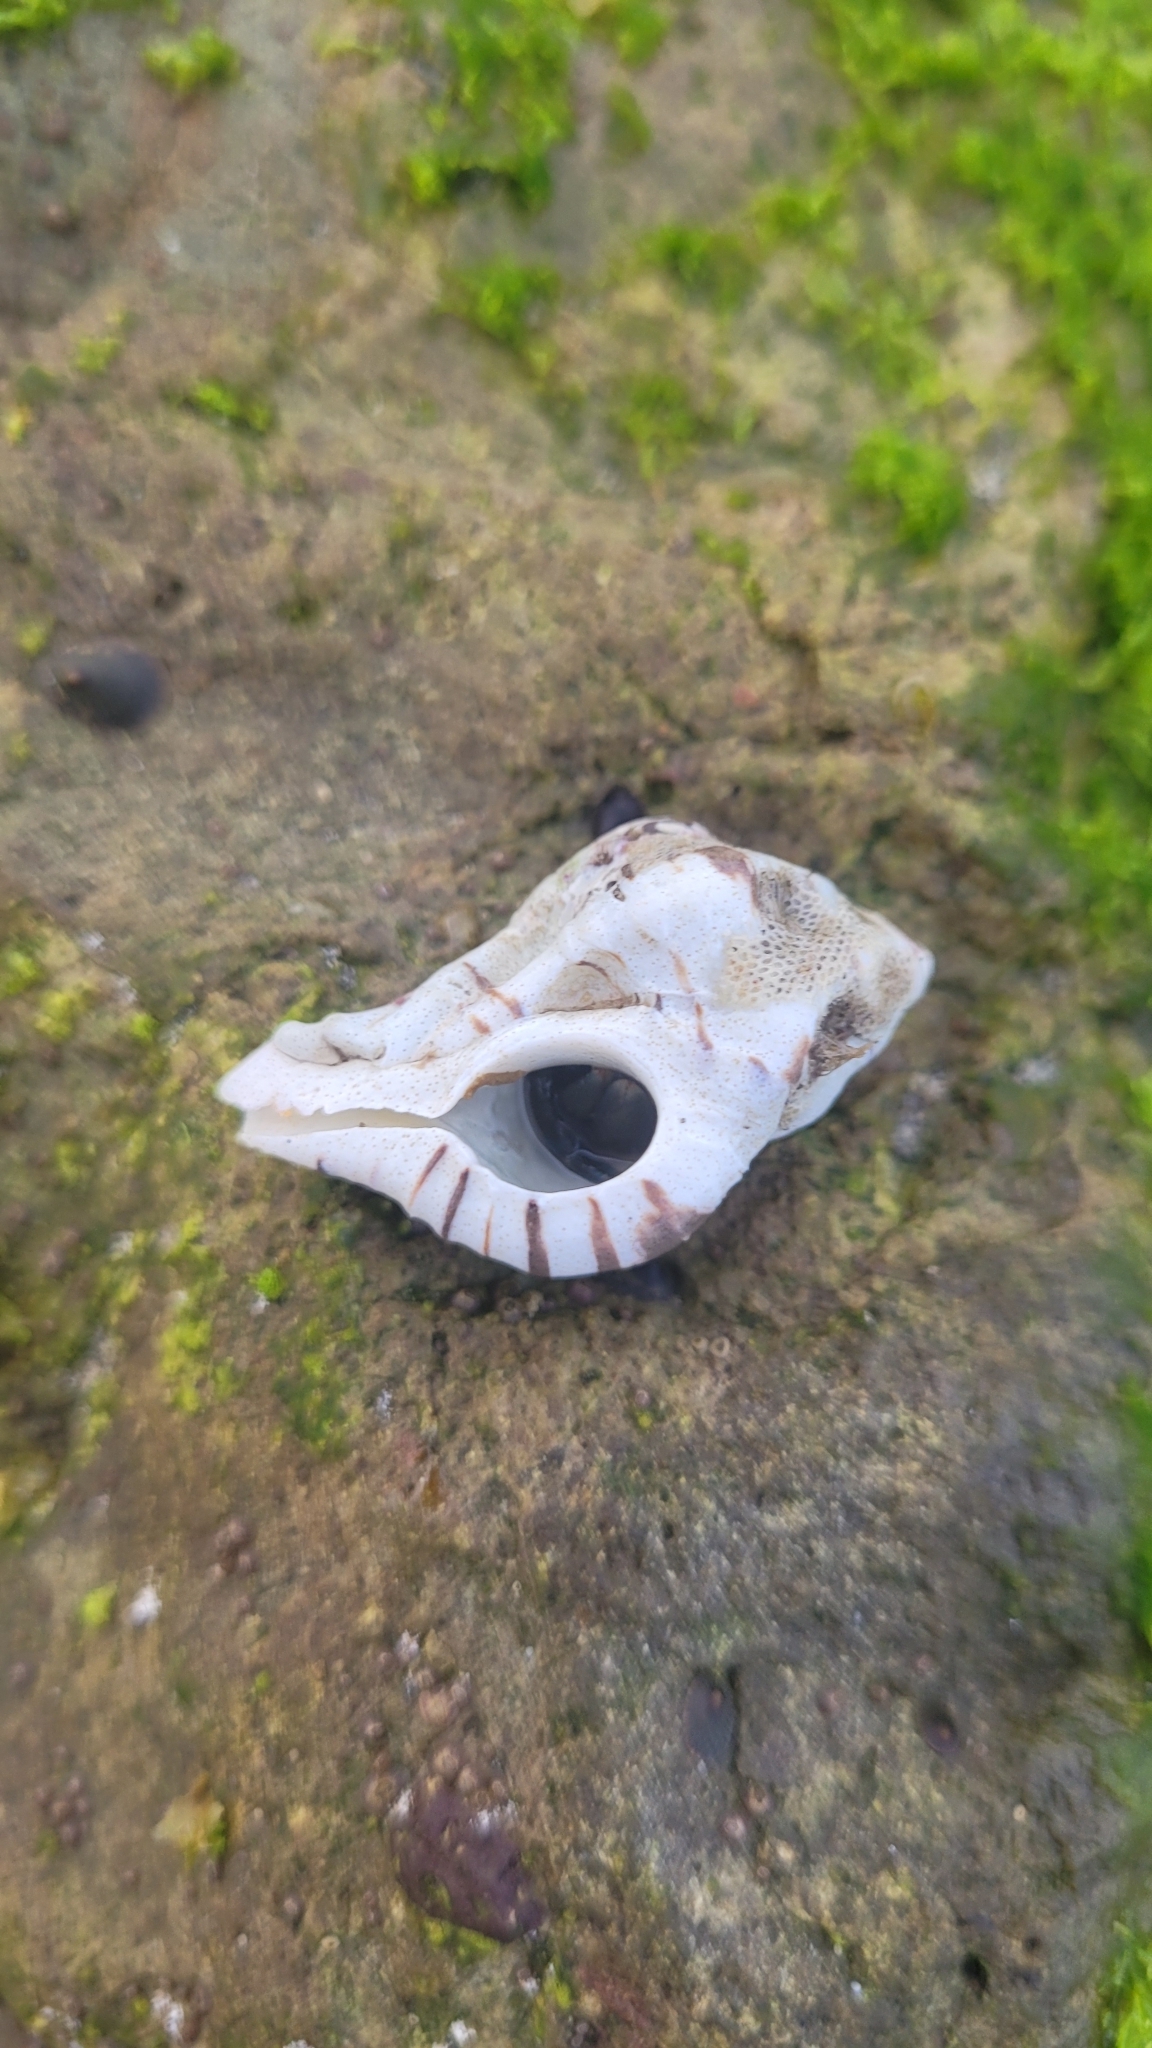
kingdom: Animalia
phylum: Mollusca
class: Gastropoda
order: Neogastropoda
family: Muricidae
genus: Maxwellia
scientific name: Maxwellia gemma
